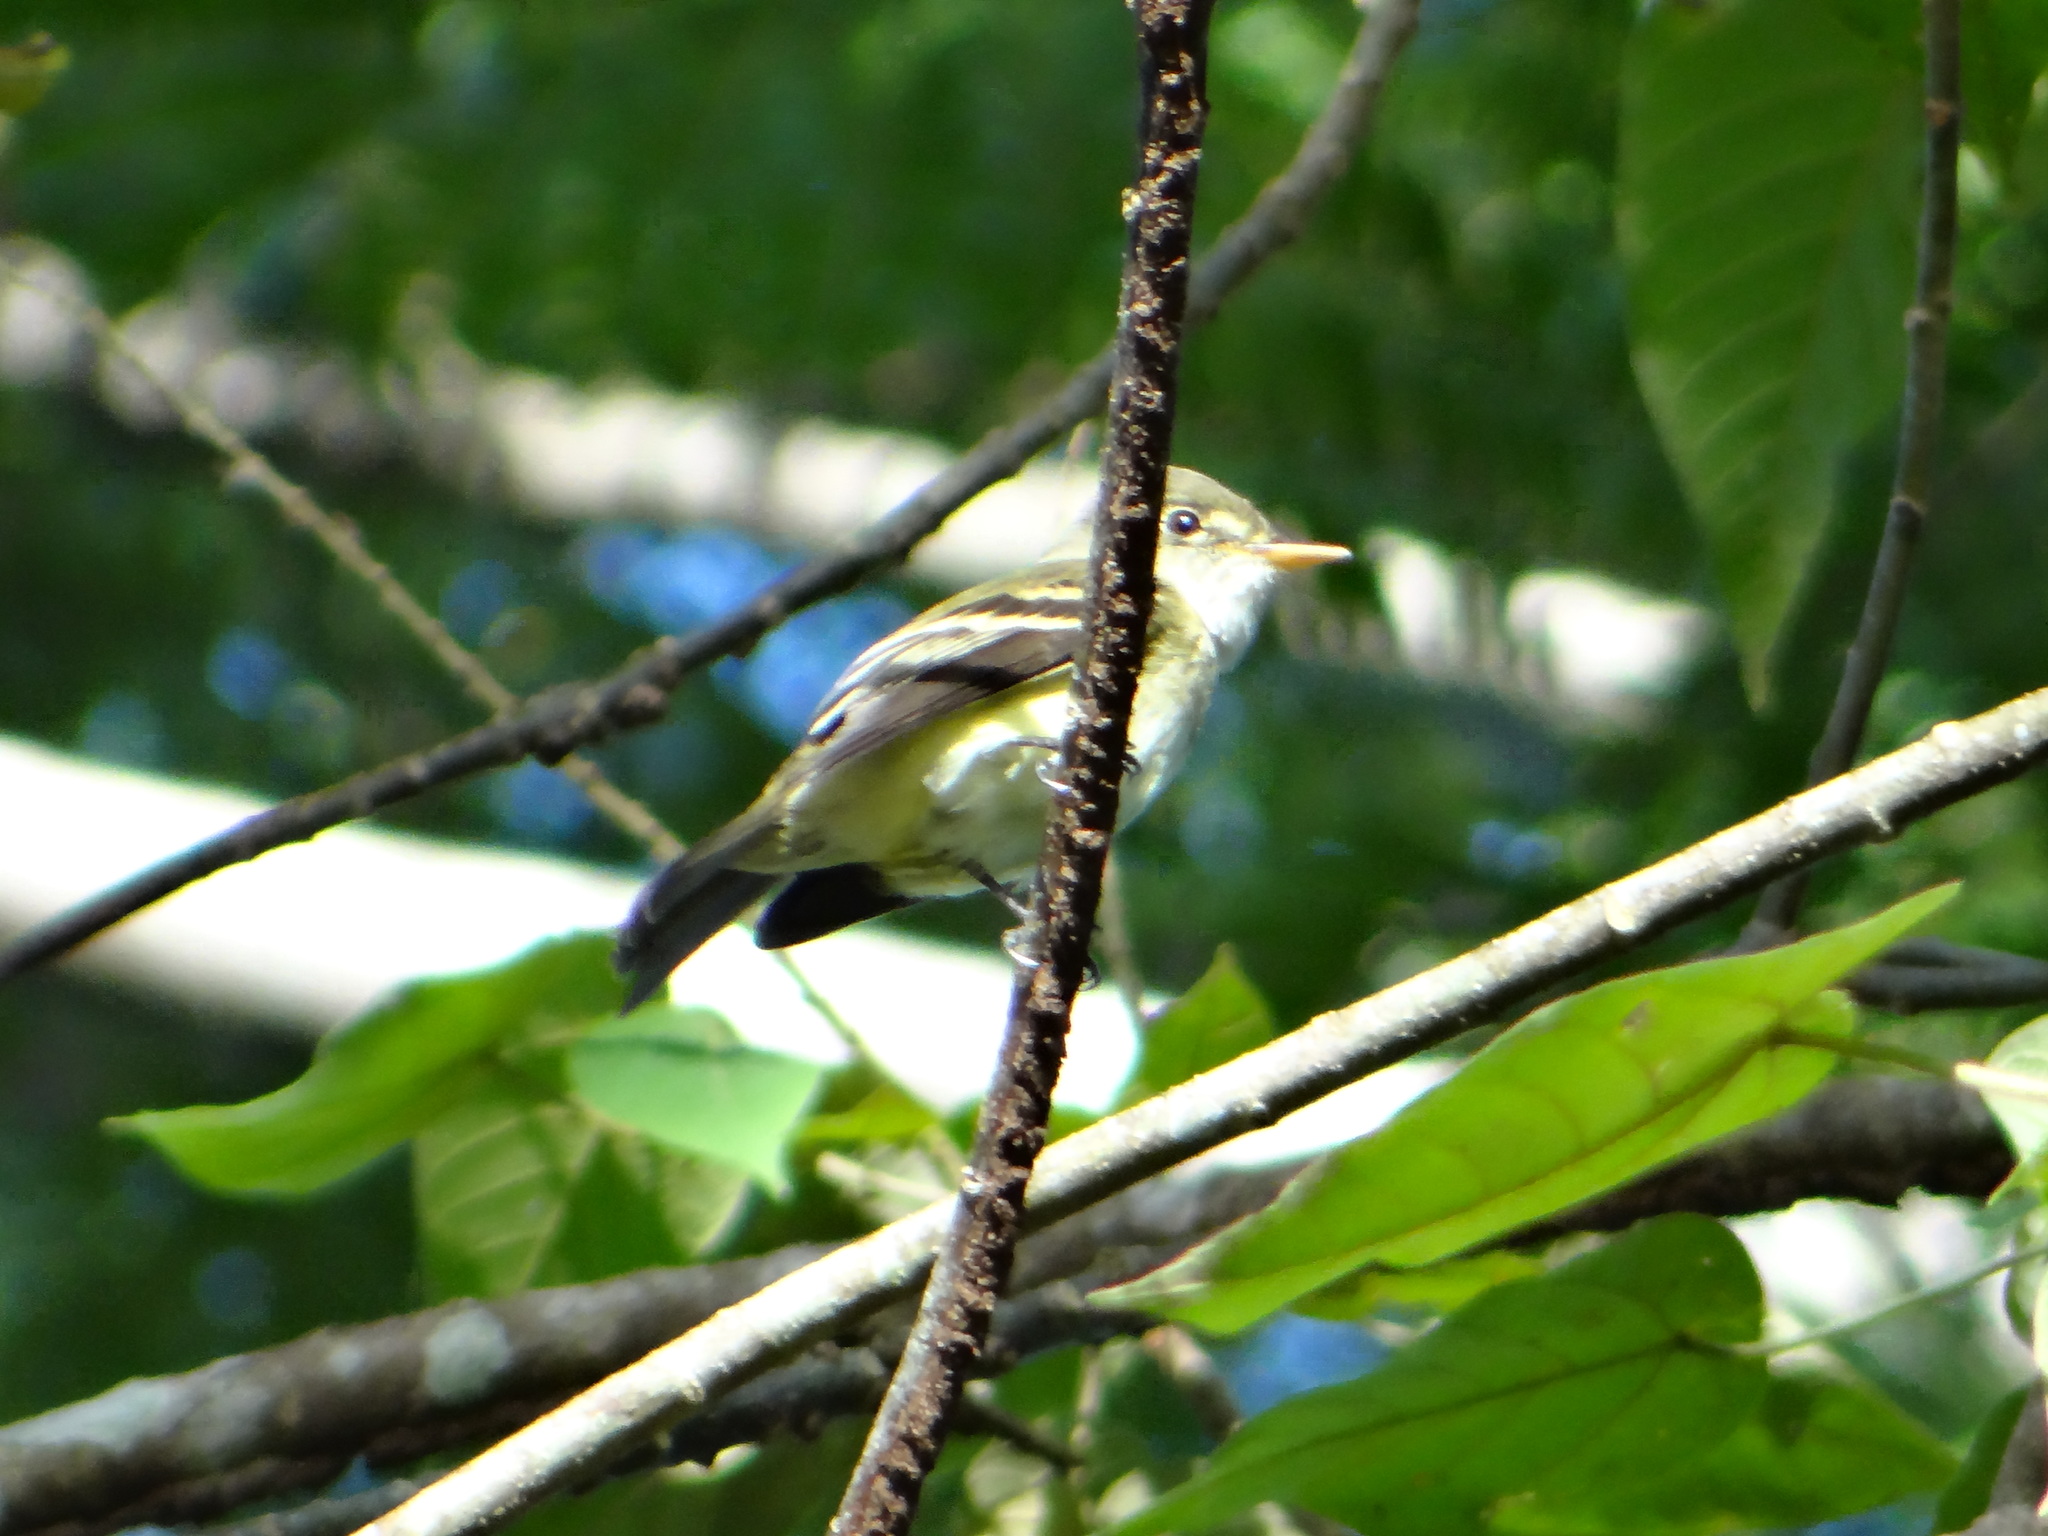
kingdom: Animalia
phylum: Chordata
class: Aves
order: Passeriformes
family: Tyrannidae
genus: Empidonax
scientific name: Empidonax alnorum
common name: Alder flycatcher
